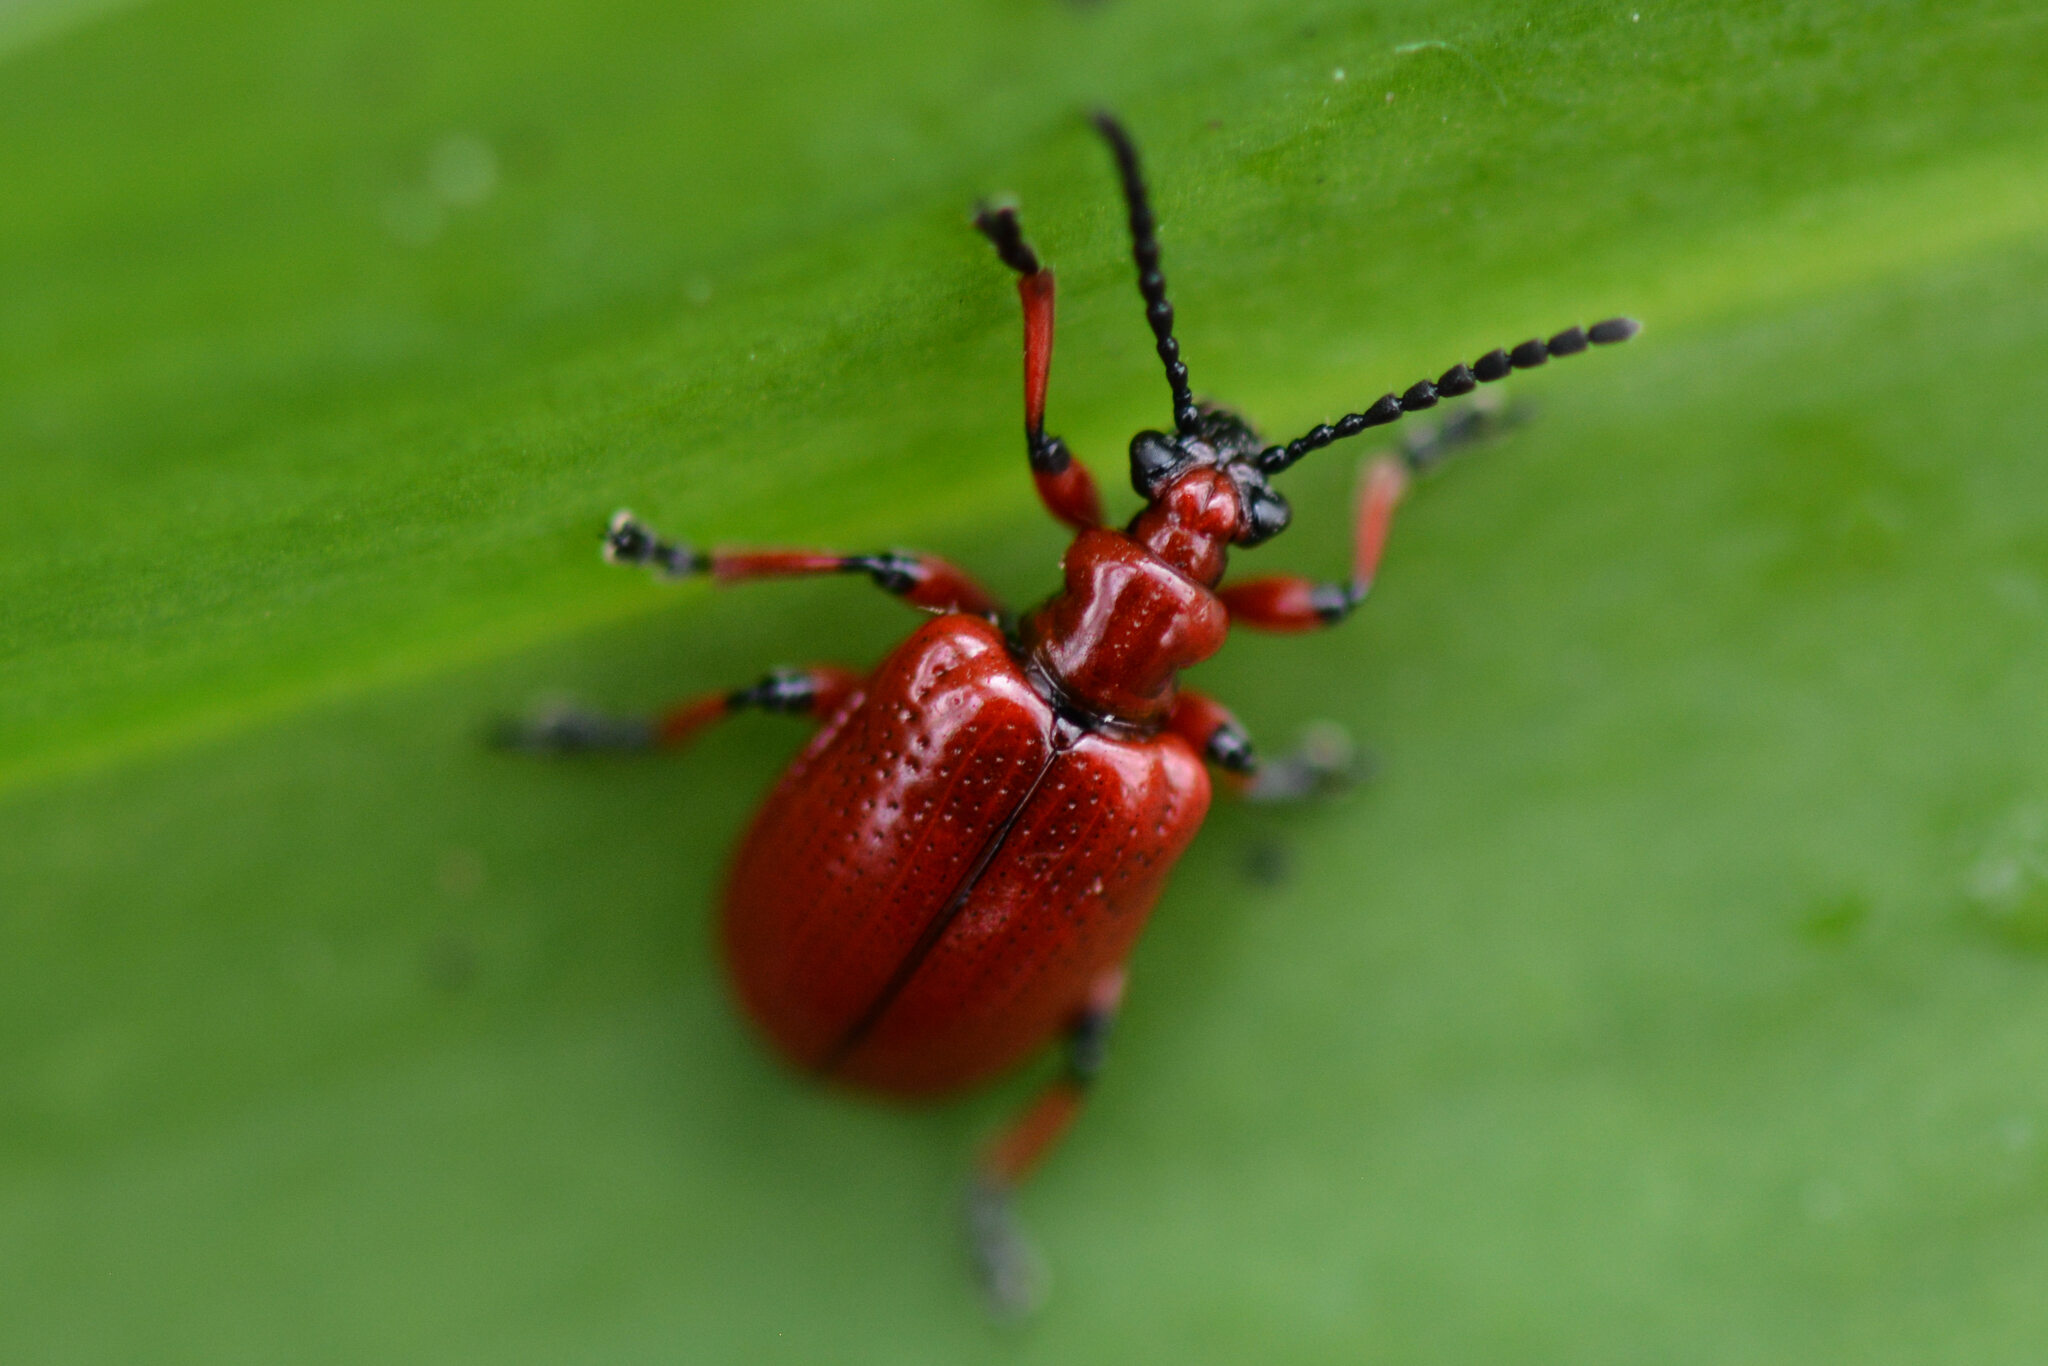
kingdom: Animalia
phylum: Arthropoda
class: Insecta
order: Coleoptera
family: Chrysomelidae
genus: Lilioceris
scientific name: Lilioceris merdigera
